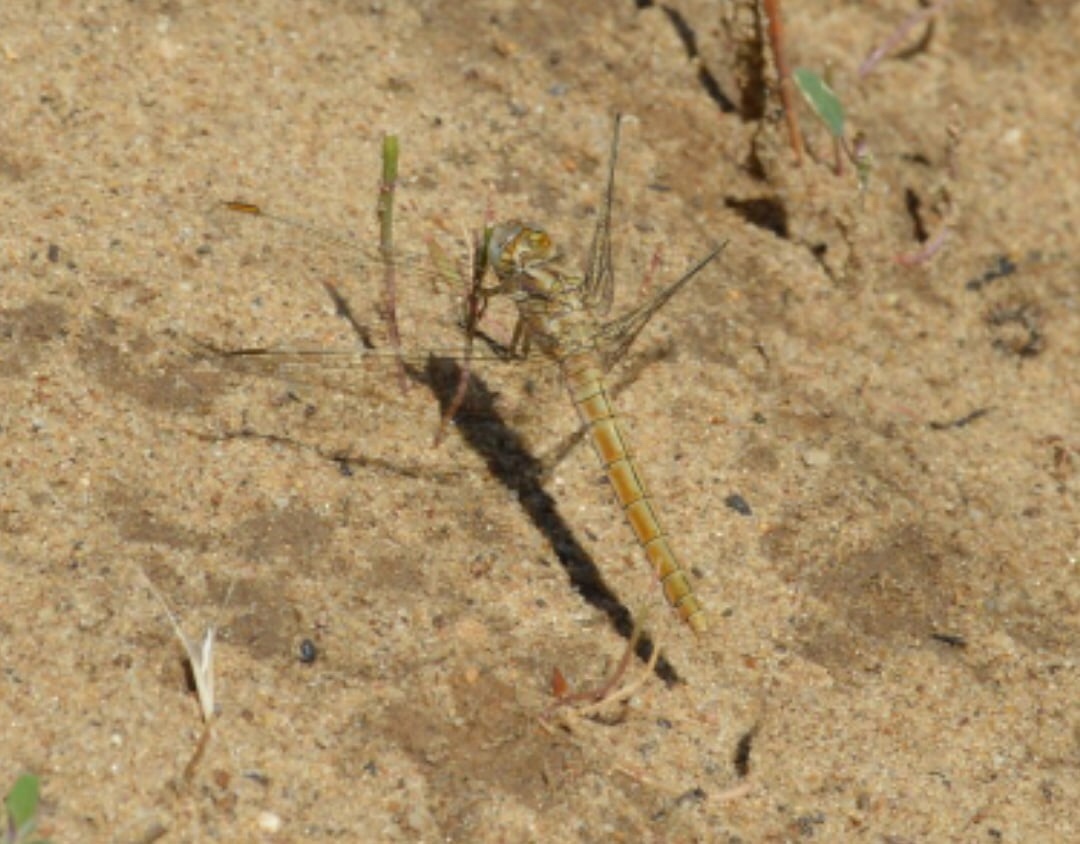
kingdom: Animalia
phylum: Arthropoda
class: Insecta
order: Odonata
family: Libellulidae
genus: Orthetrum
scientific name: Orthetrum brunneum
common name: Southern skimmer
